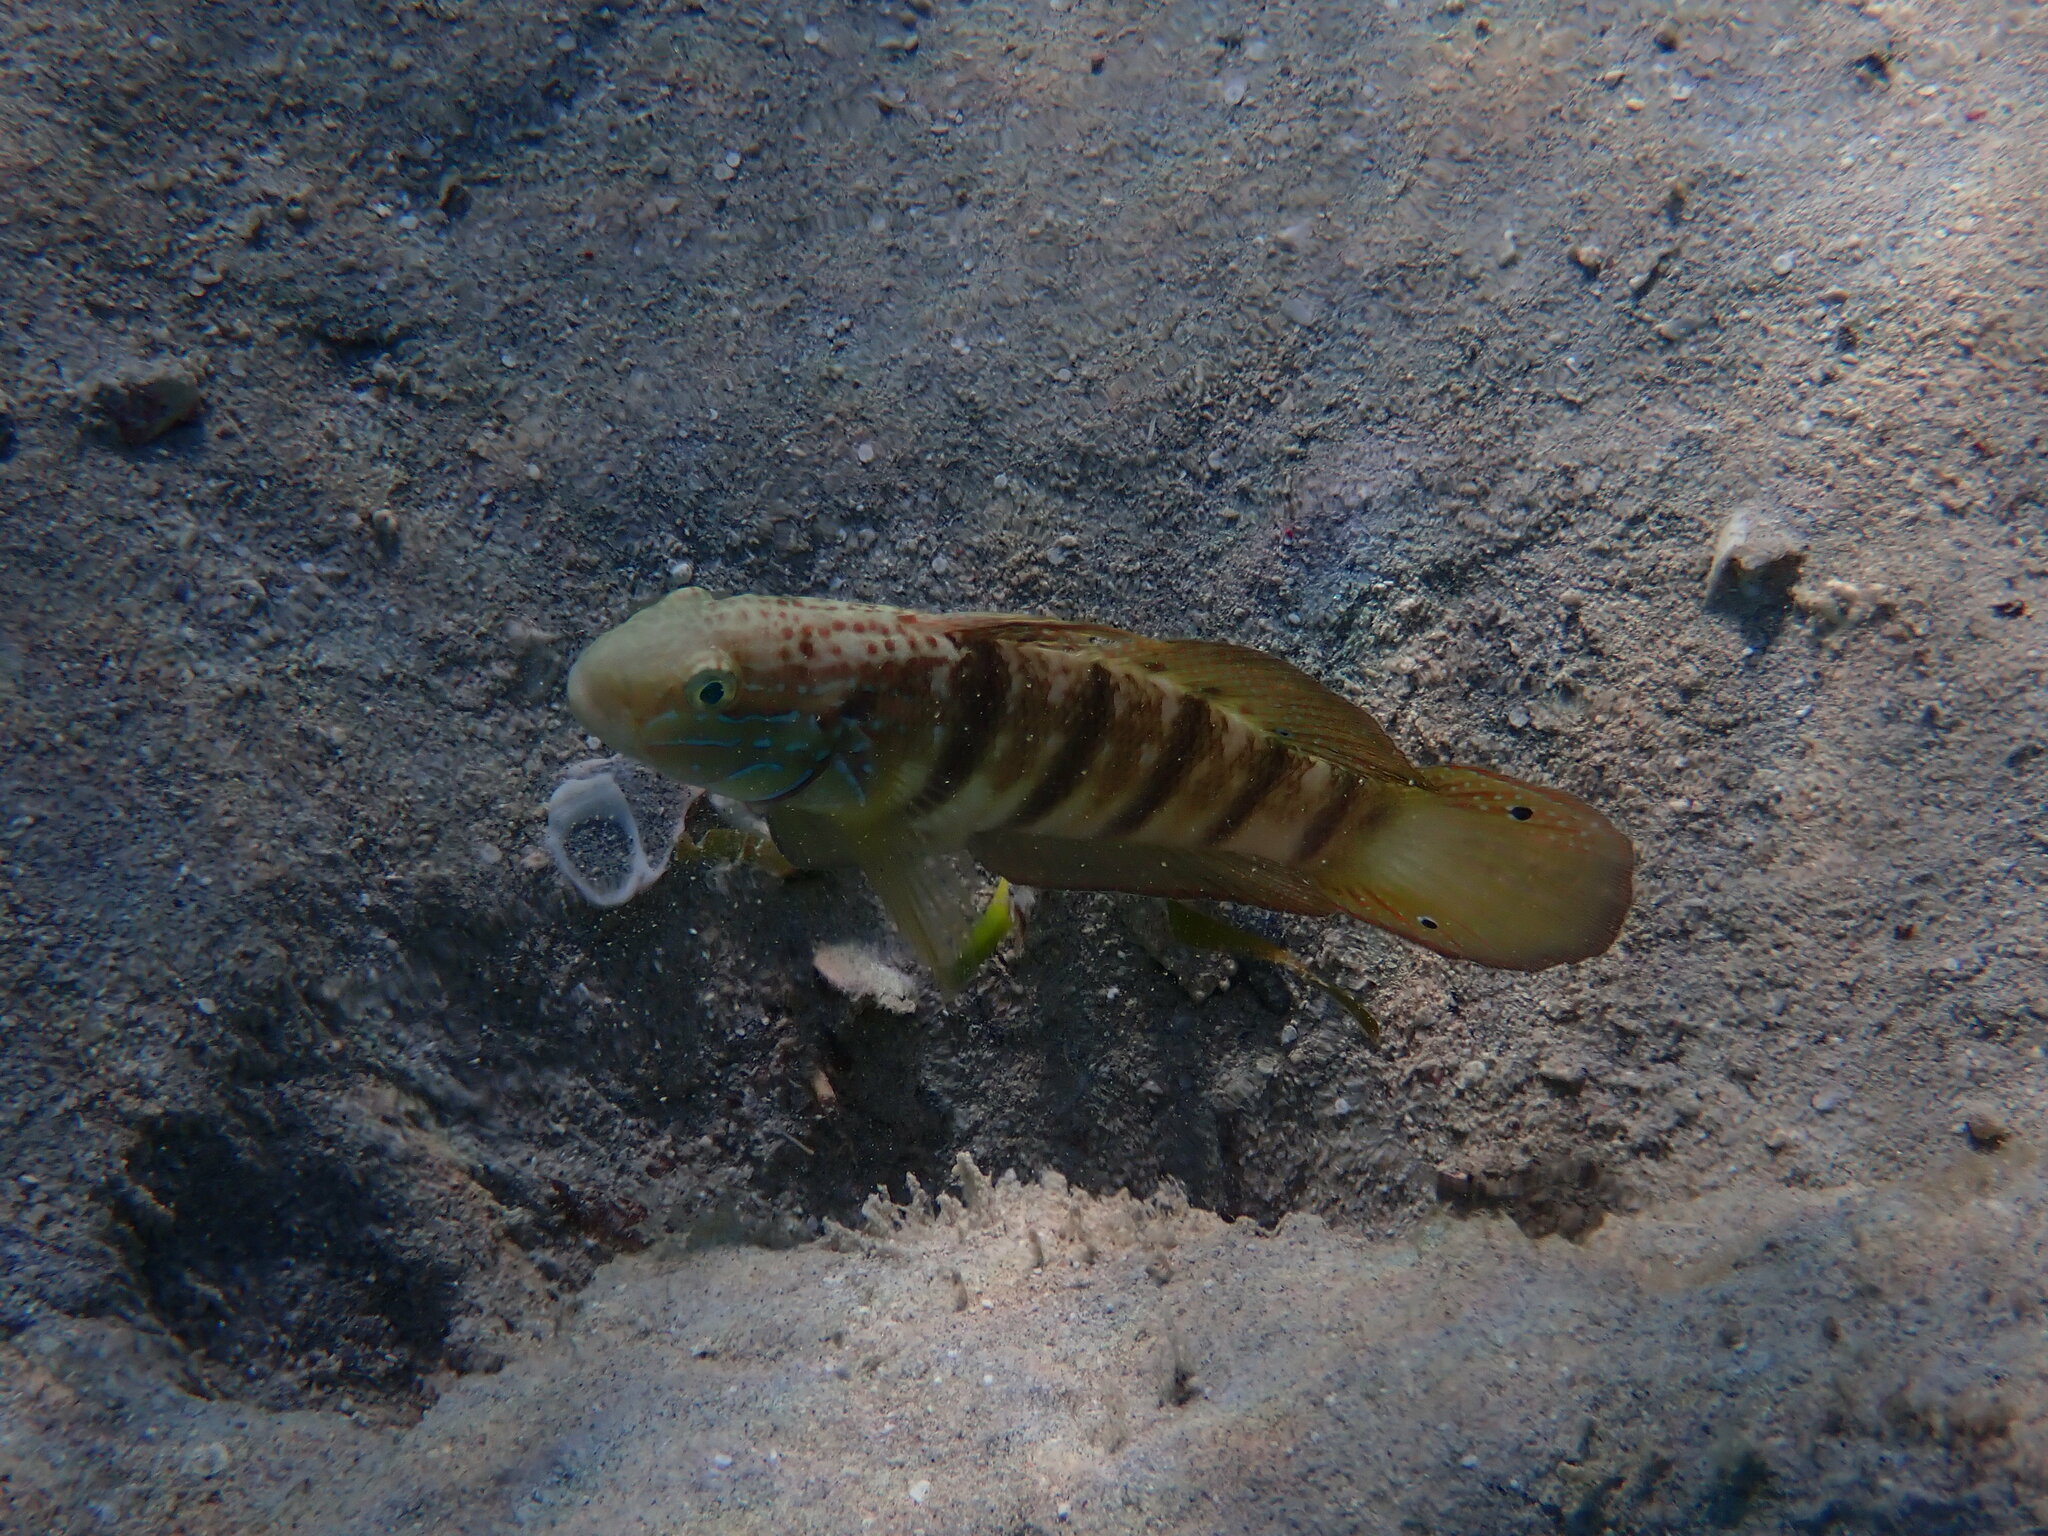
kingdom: Animalia
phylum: Chordata
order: Perciformes
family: Gobiidae
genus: Amblygobius
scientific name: Amblygobius albimaculatus
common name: Butterfly goby
